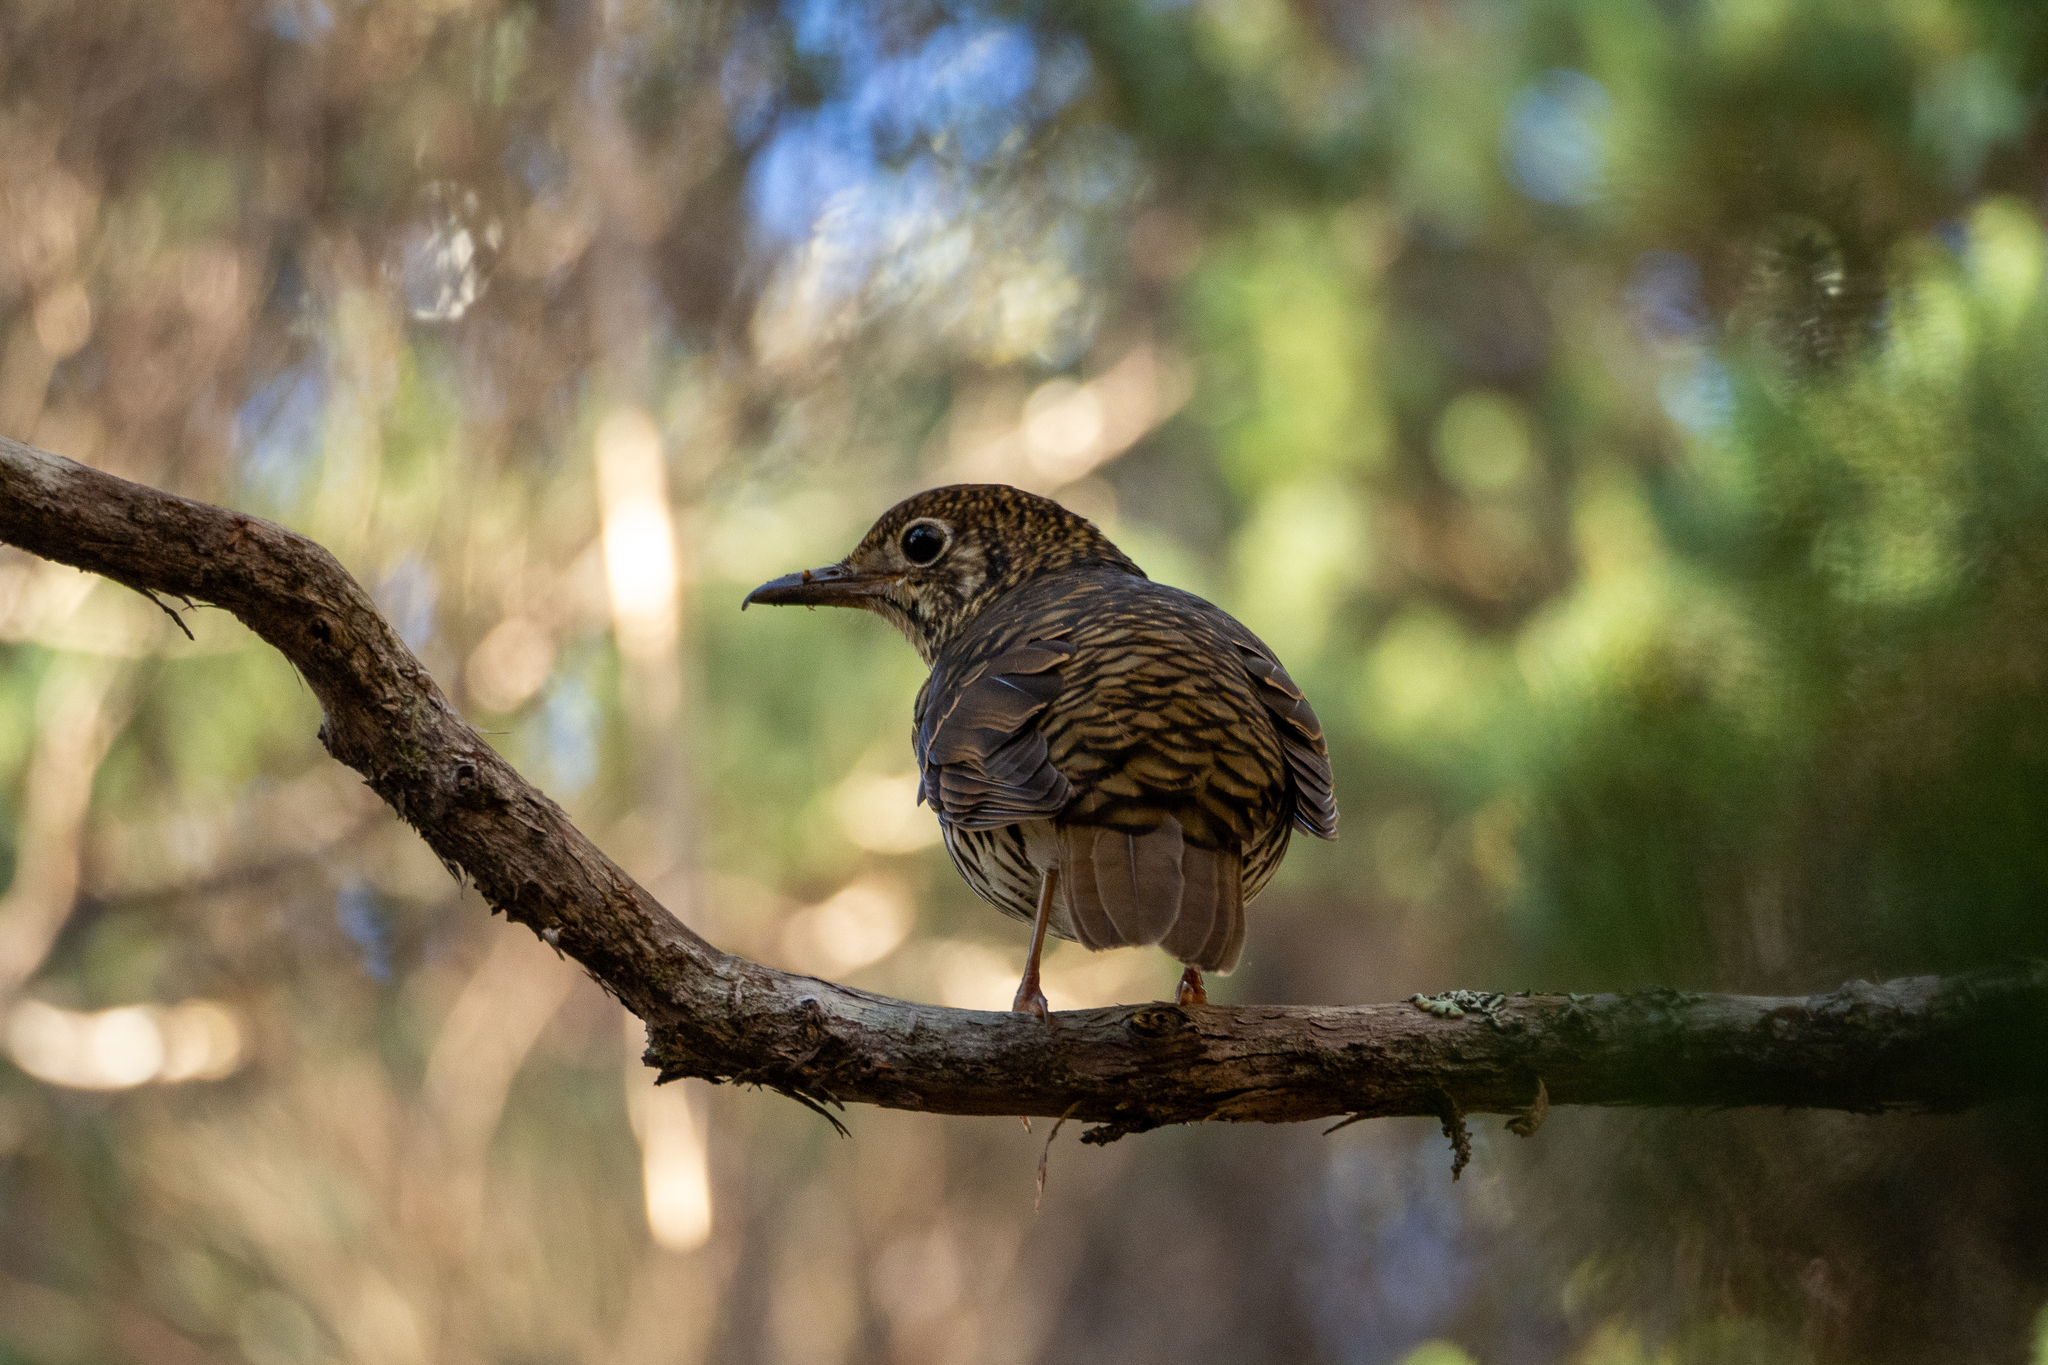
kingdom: Animalia
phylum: Chordata
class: Aves
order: Passeriformes
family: Turdidae
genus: Zoothera
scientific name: Zoothera lunulata
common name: Bassian thrush
